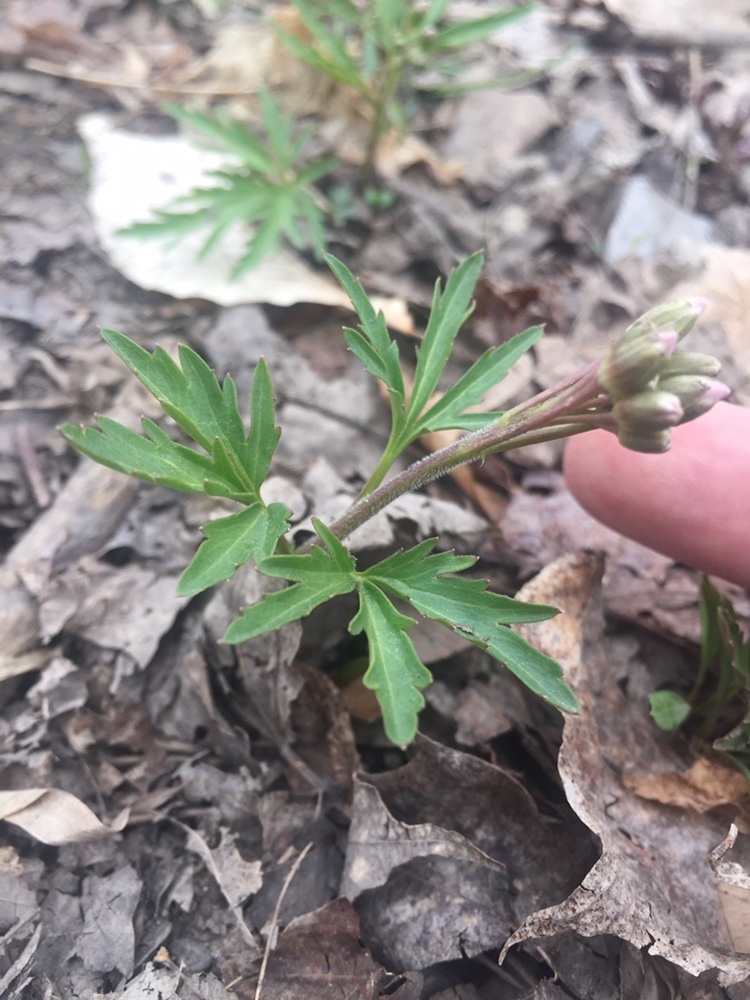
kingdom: Plantae
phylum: Tracheophyta
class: Magnoliopsida
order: Brassicales
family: Brassicaceae
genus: Cardamine
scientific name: Cardamine concatenata
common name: Cut-leaf toothcup
